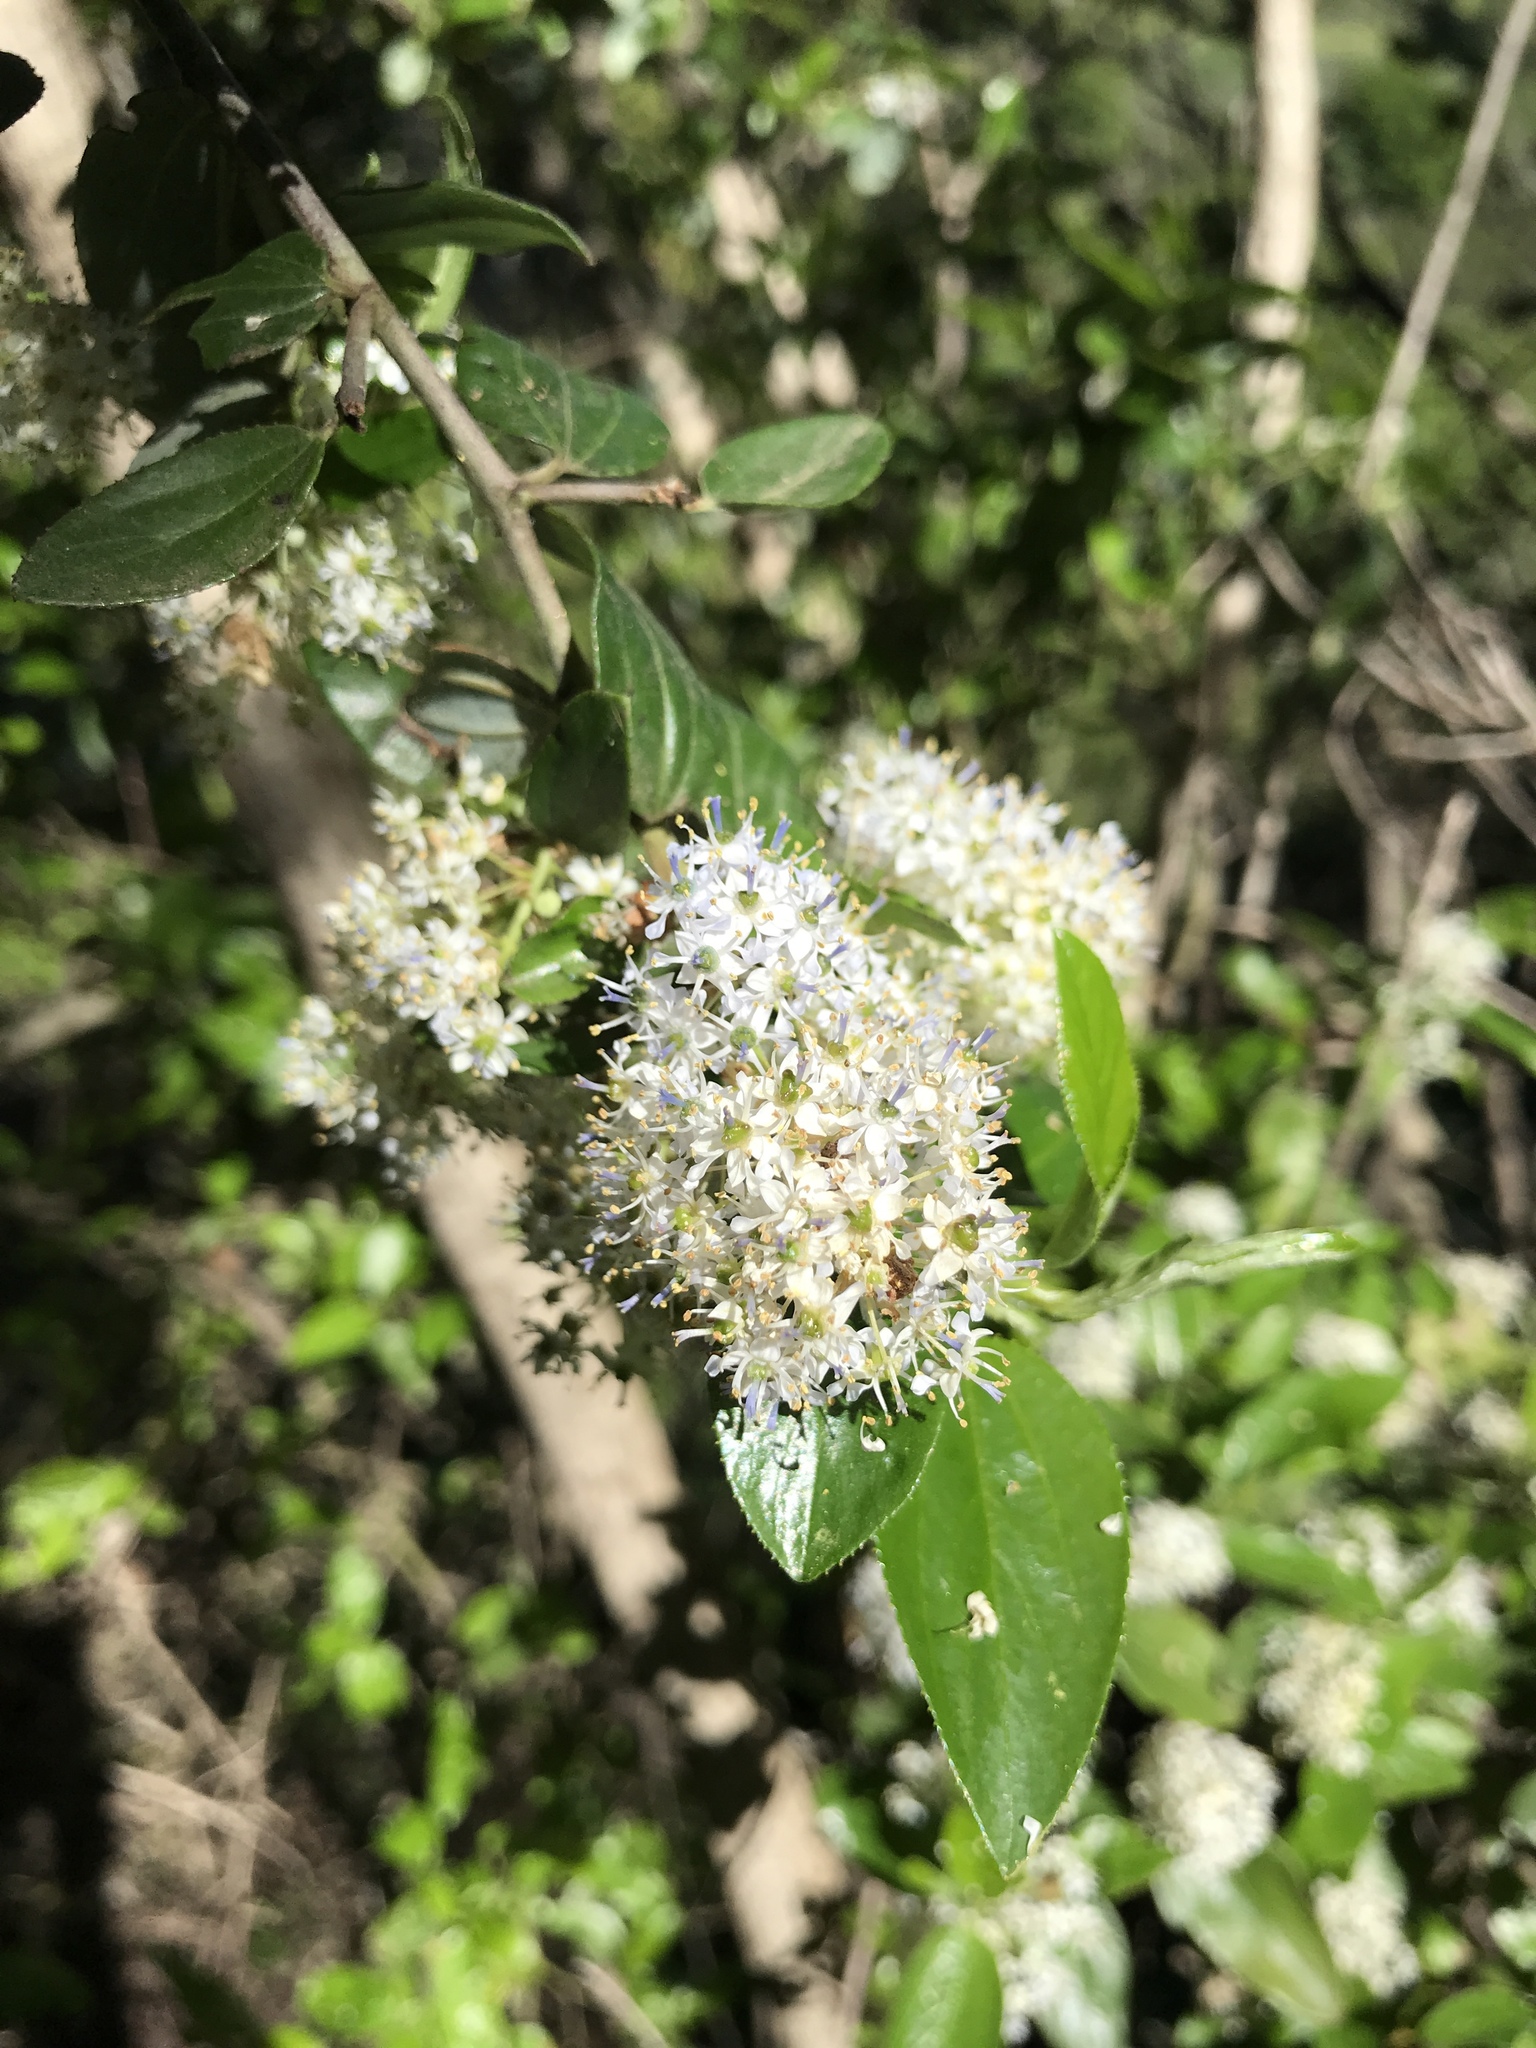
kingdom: Plantae
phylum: Tracheophyta
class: Magnoliopsida
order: Rosales
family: Rhamnaceae
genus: Ceanothus
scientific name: Ceanothus sorediatus
